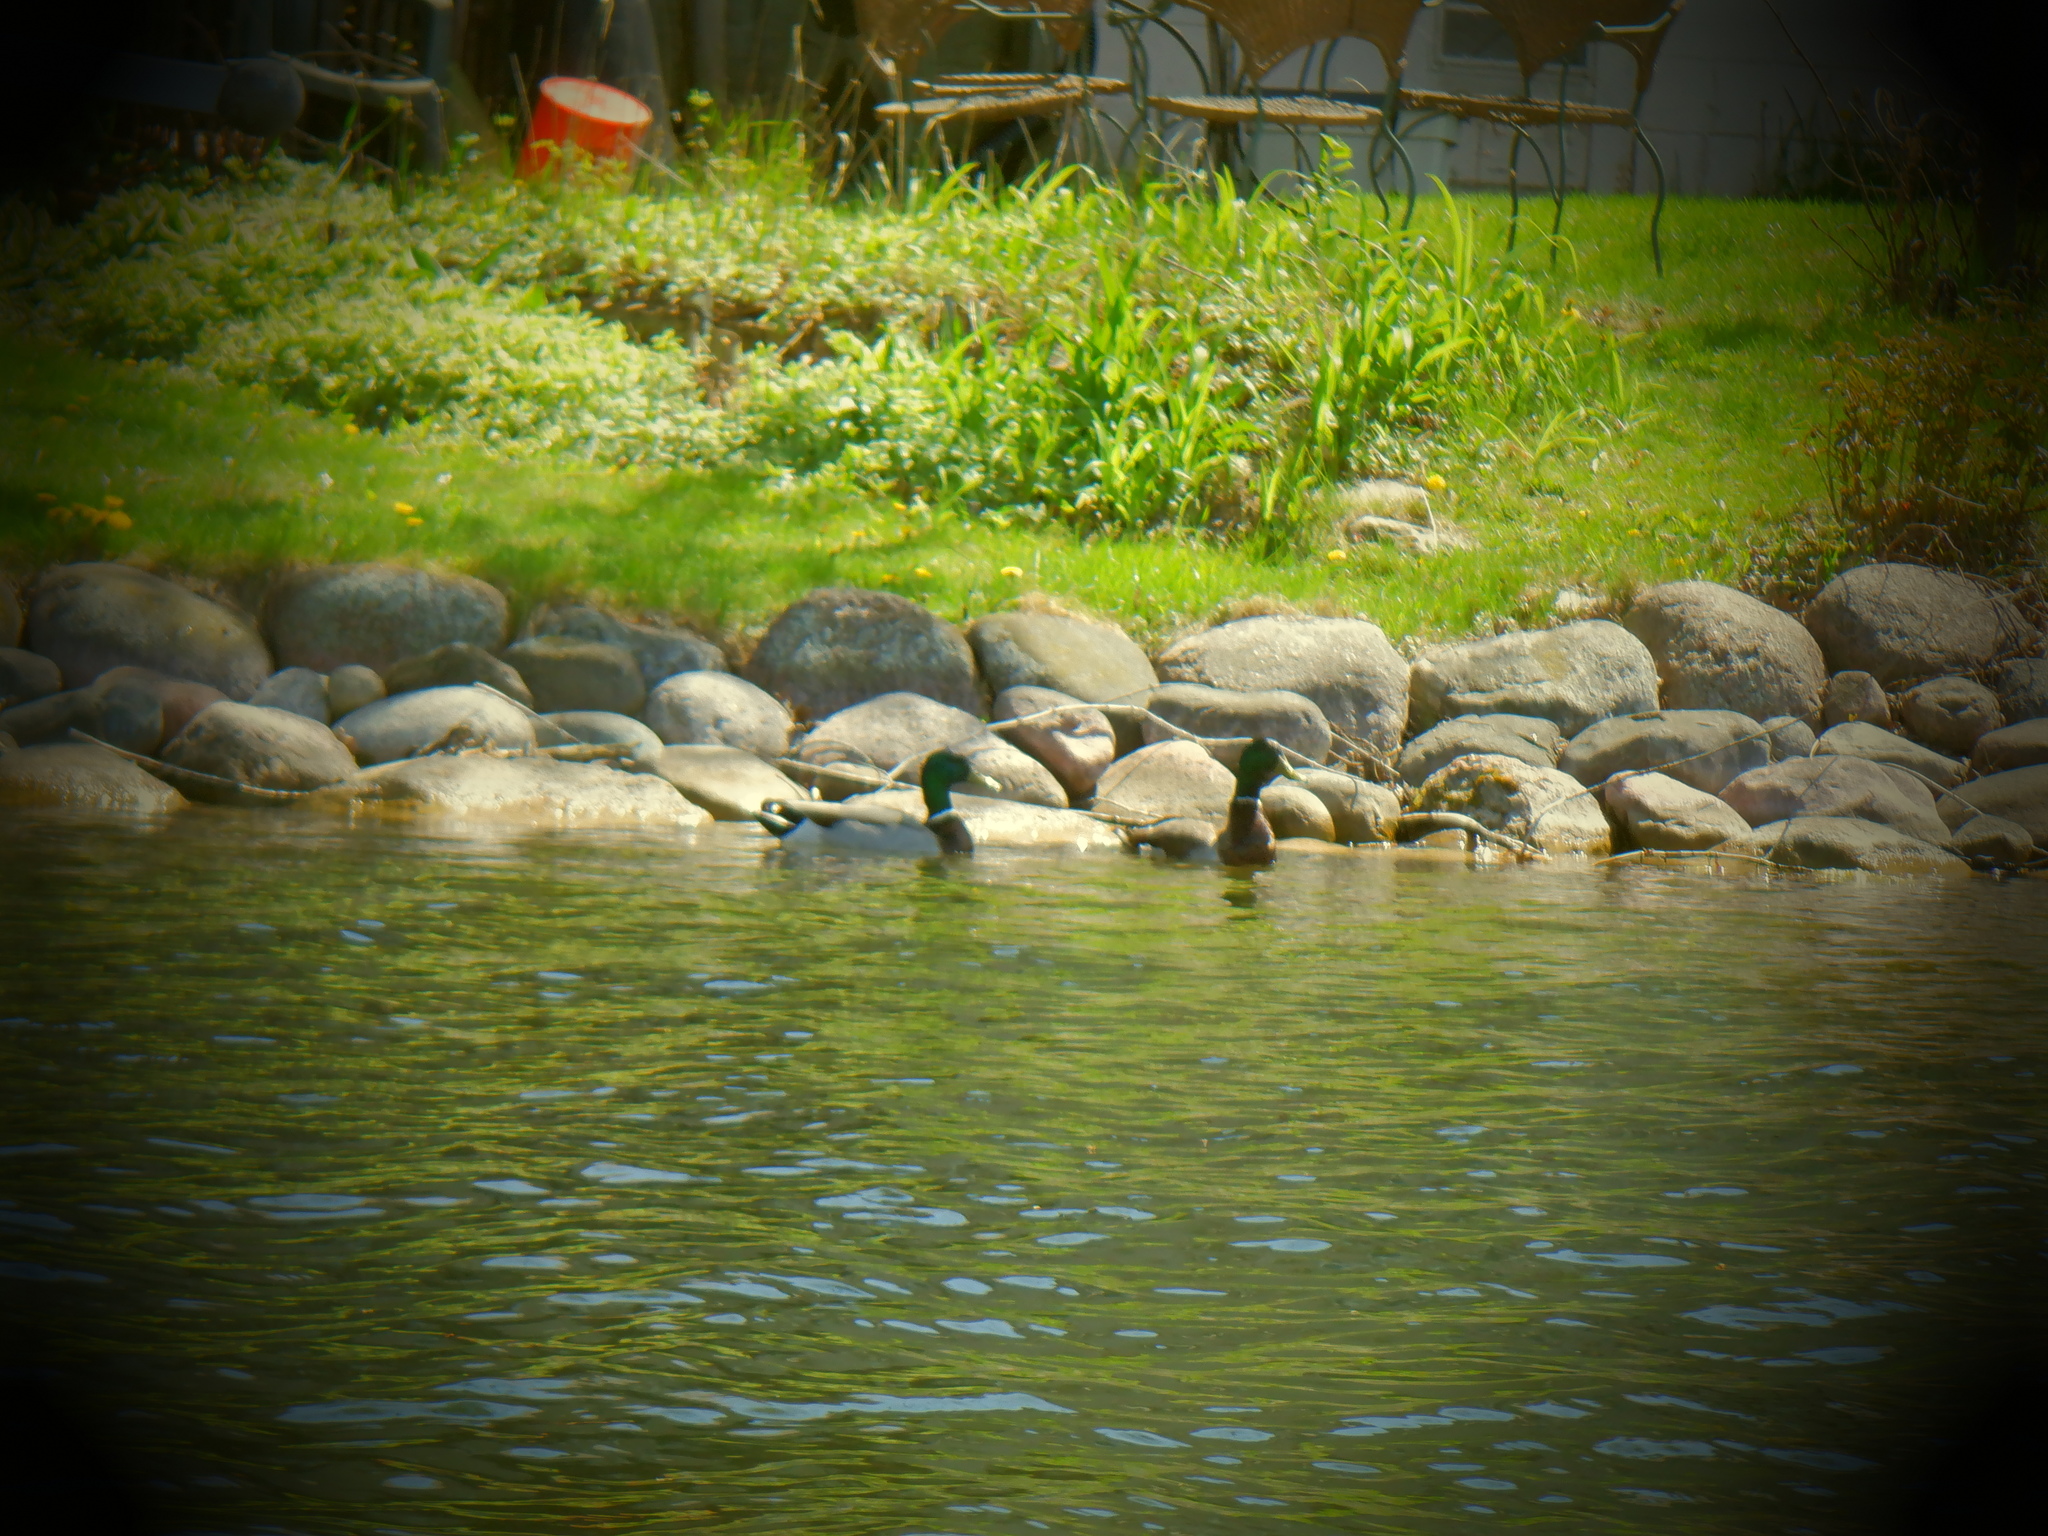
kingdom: Animalia
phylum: Chordata
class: Aves
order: Anseriformes
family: Anatidae
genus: Anas
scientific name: Anas platyrhynchos
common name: Mallard
